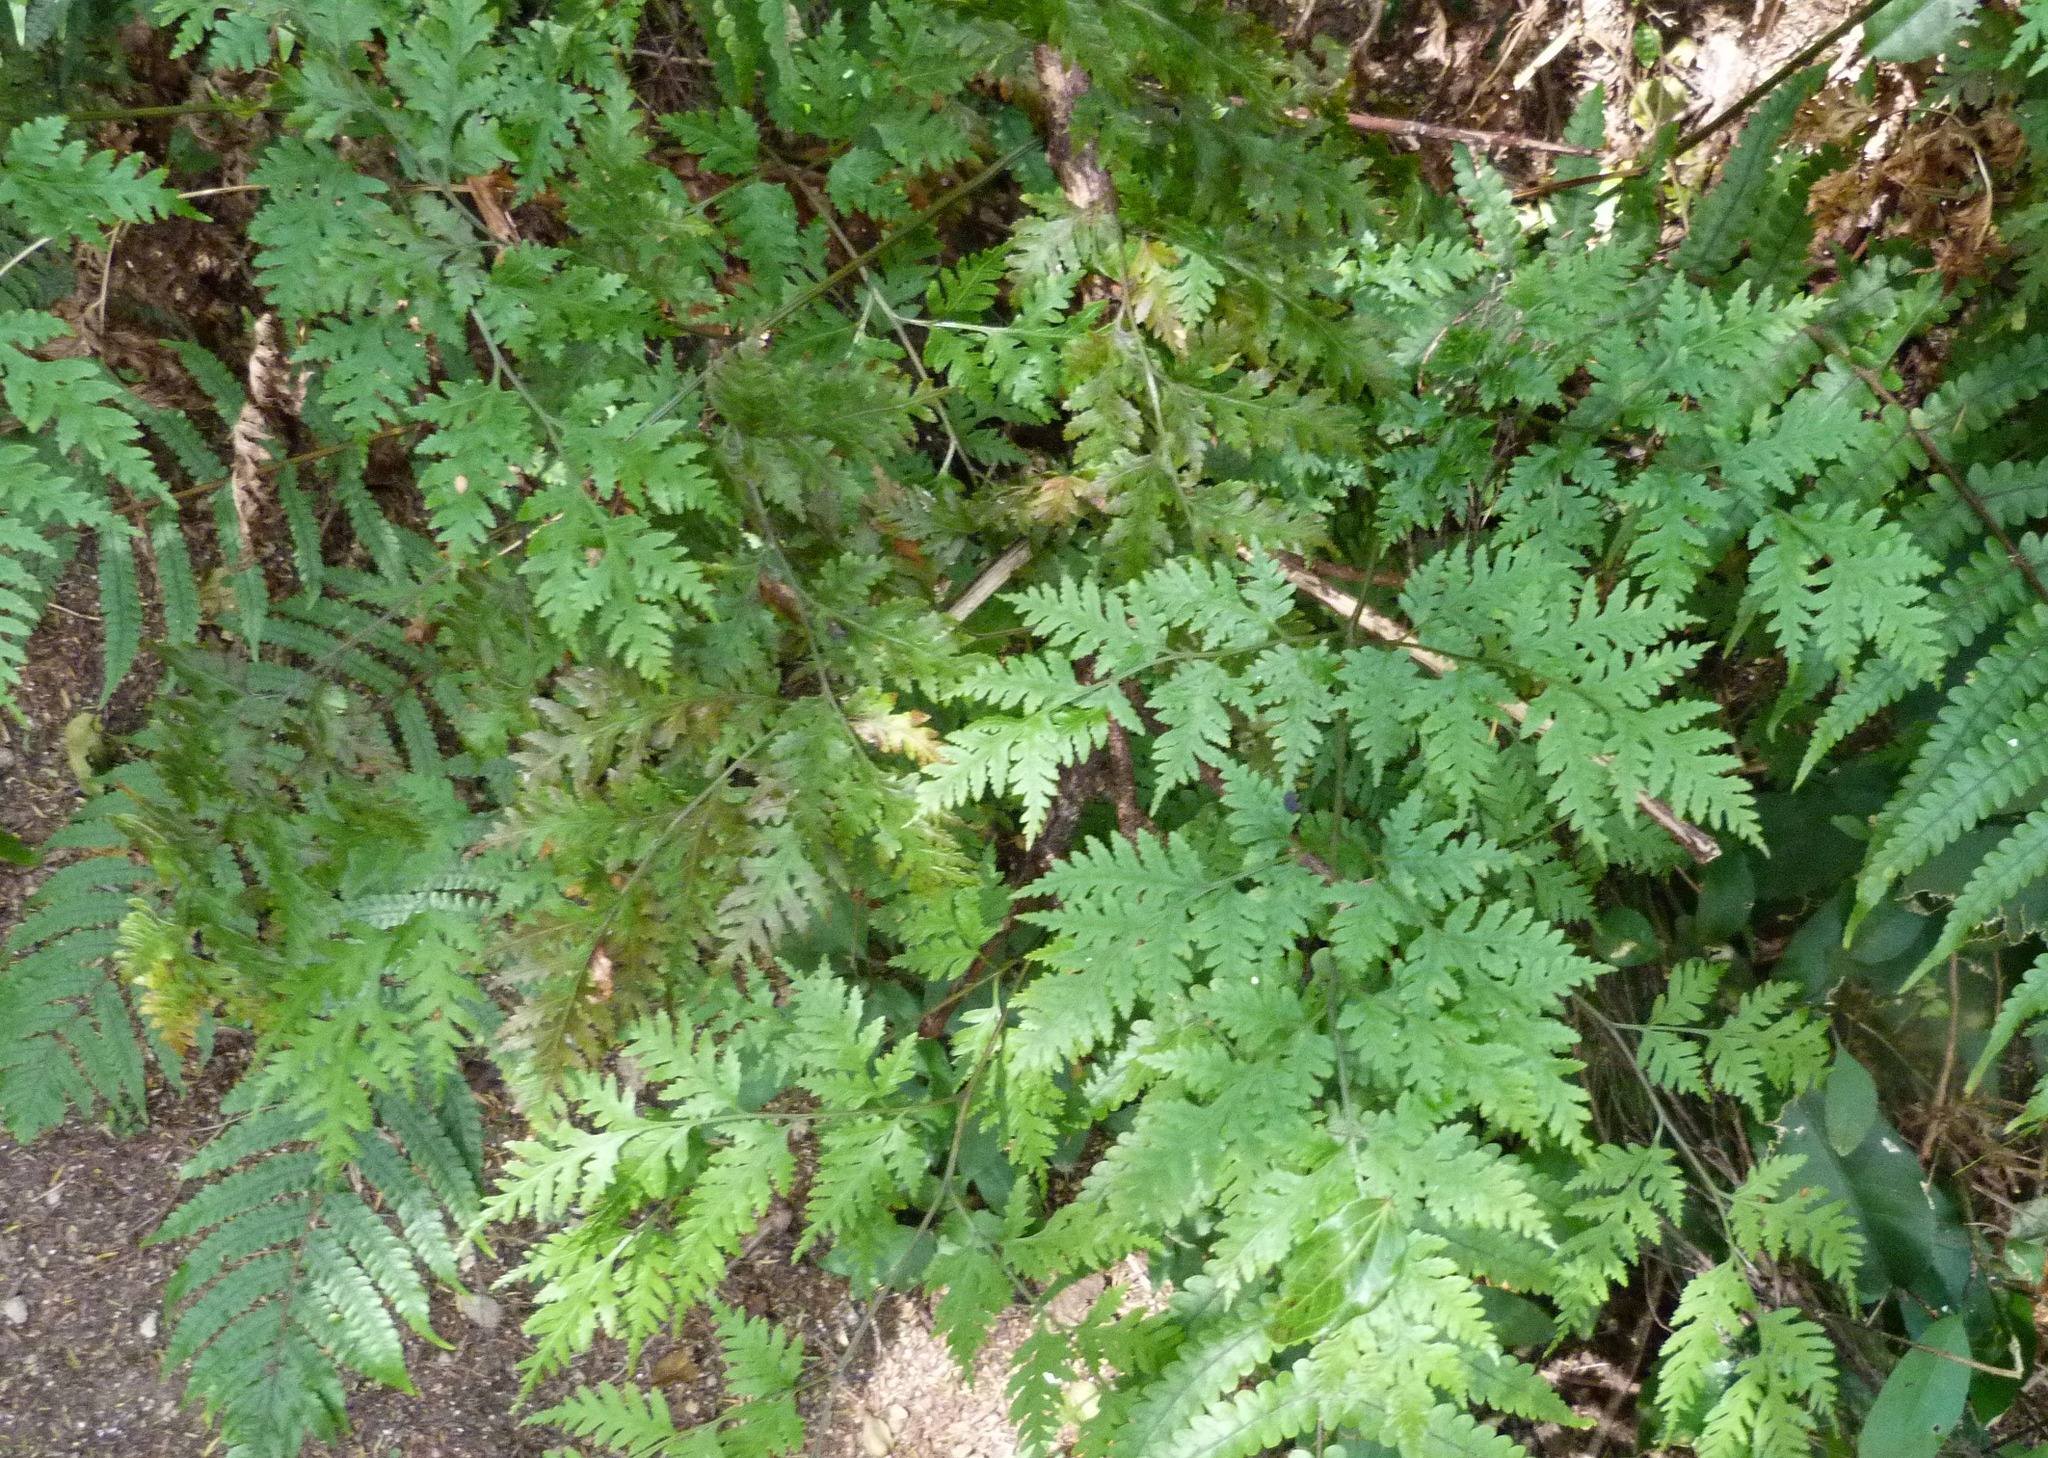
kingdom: Plantae
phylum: Tracheophyta
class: Polypodiopsida
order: Polypodiales
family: Pteridaceae
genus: Pteris
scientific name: Pteris macilenta
